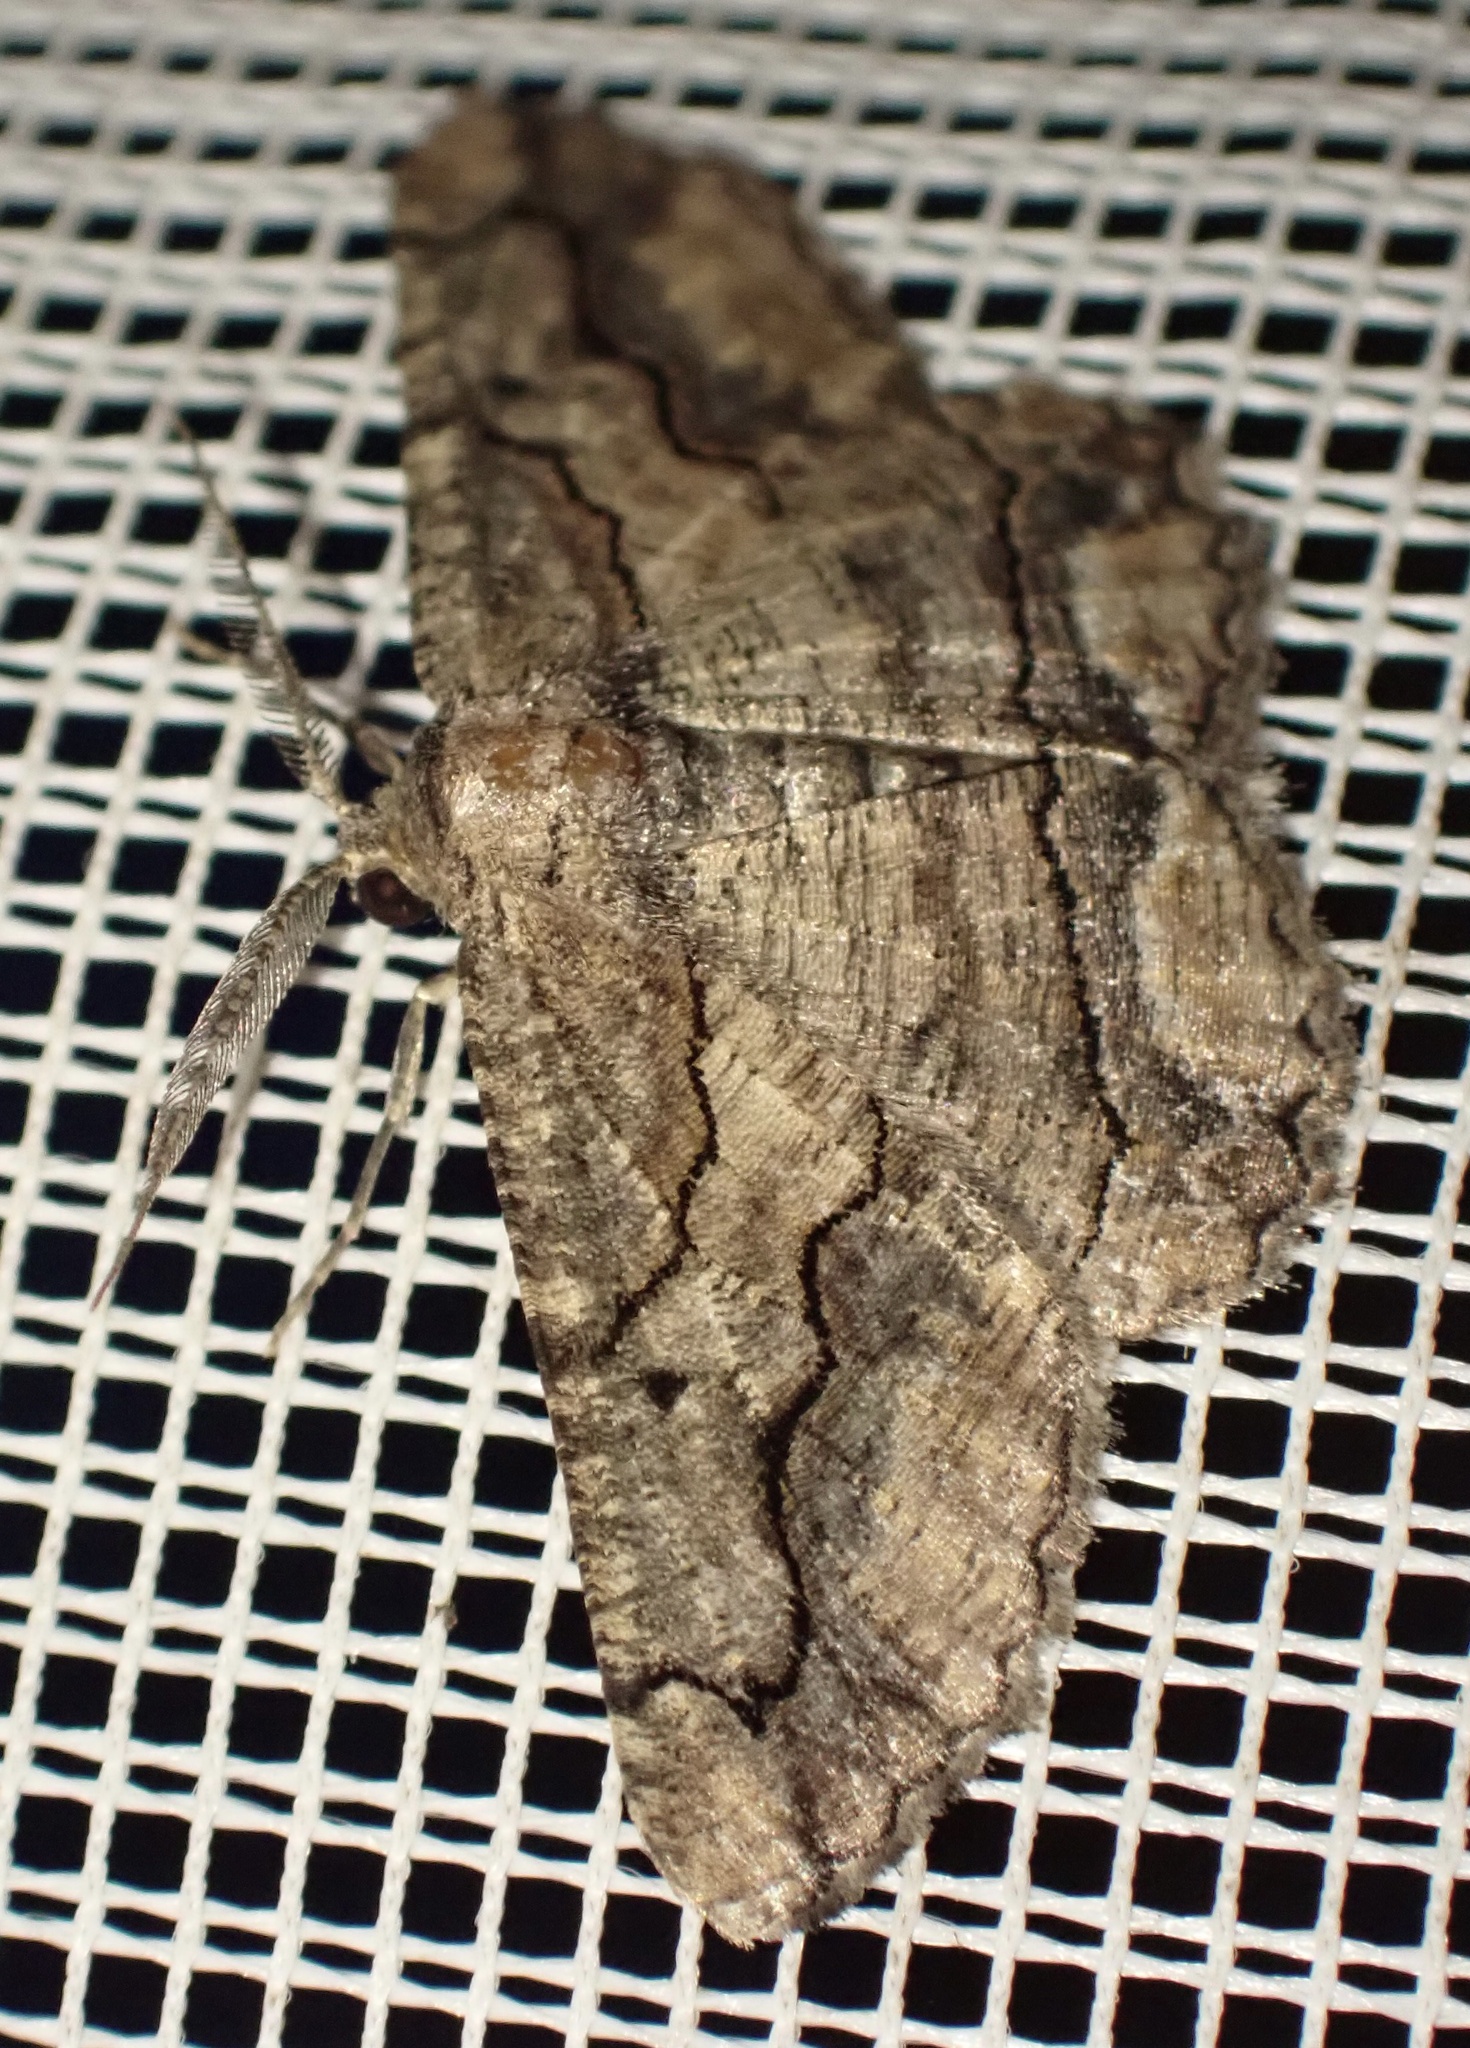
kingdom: Animalia
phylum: Arthropoda
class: Insecta
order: Lepidoptera
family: Geometridae
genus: Menophra
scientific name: Menophra japygiaria
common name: Brassy waved umber
